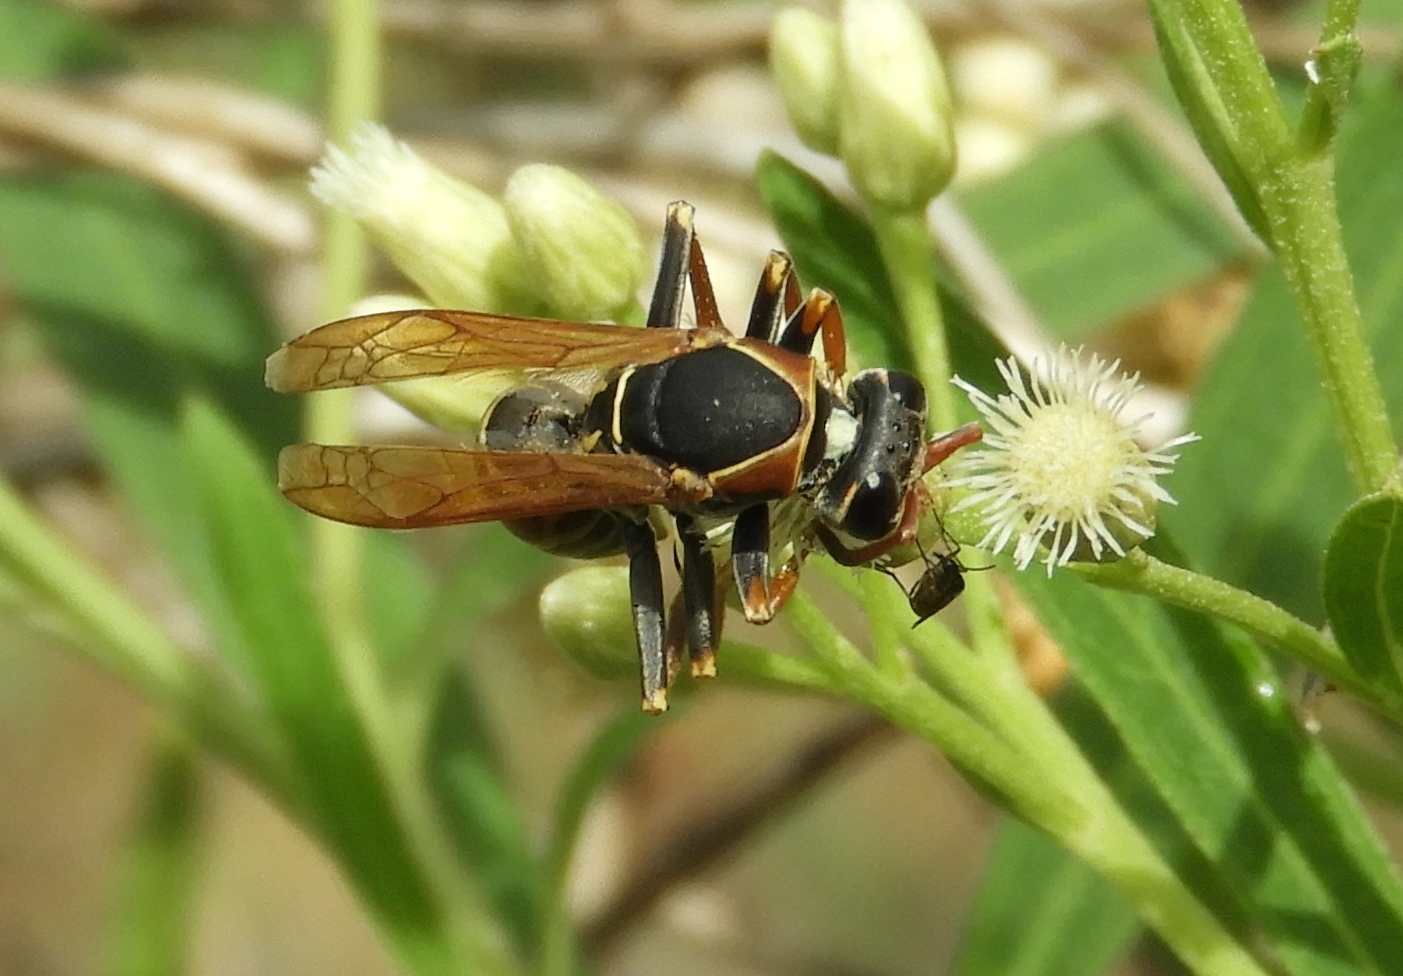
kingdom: Animalia
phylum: Arthropoda
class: Insecta
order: Hymenoptera
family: Eumenidae
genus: Polistes
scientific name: Polistes
